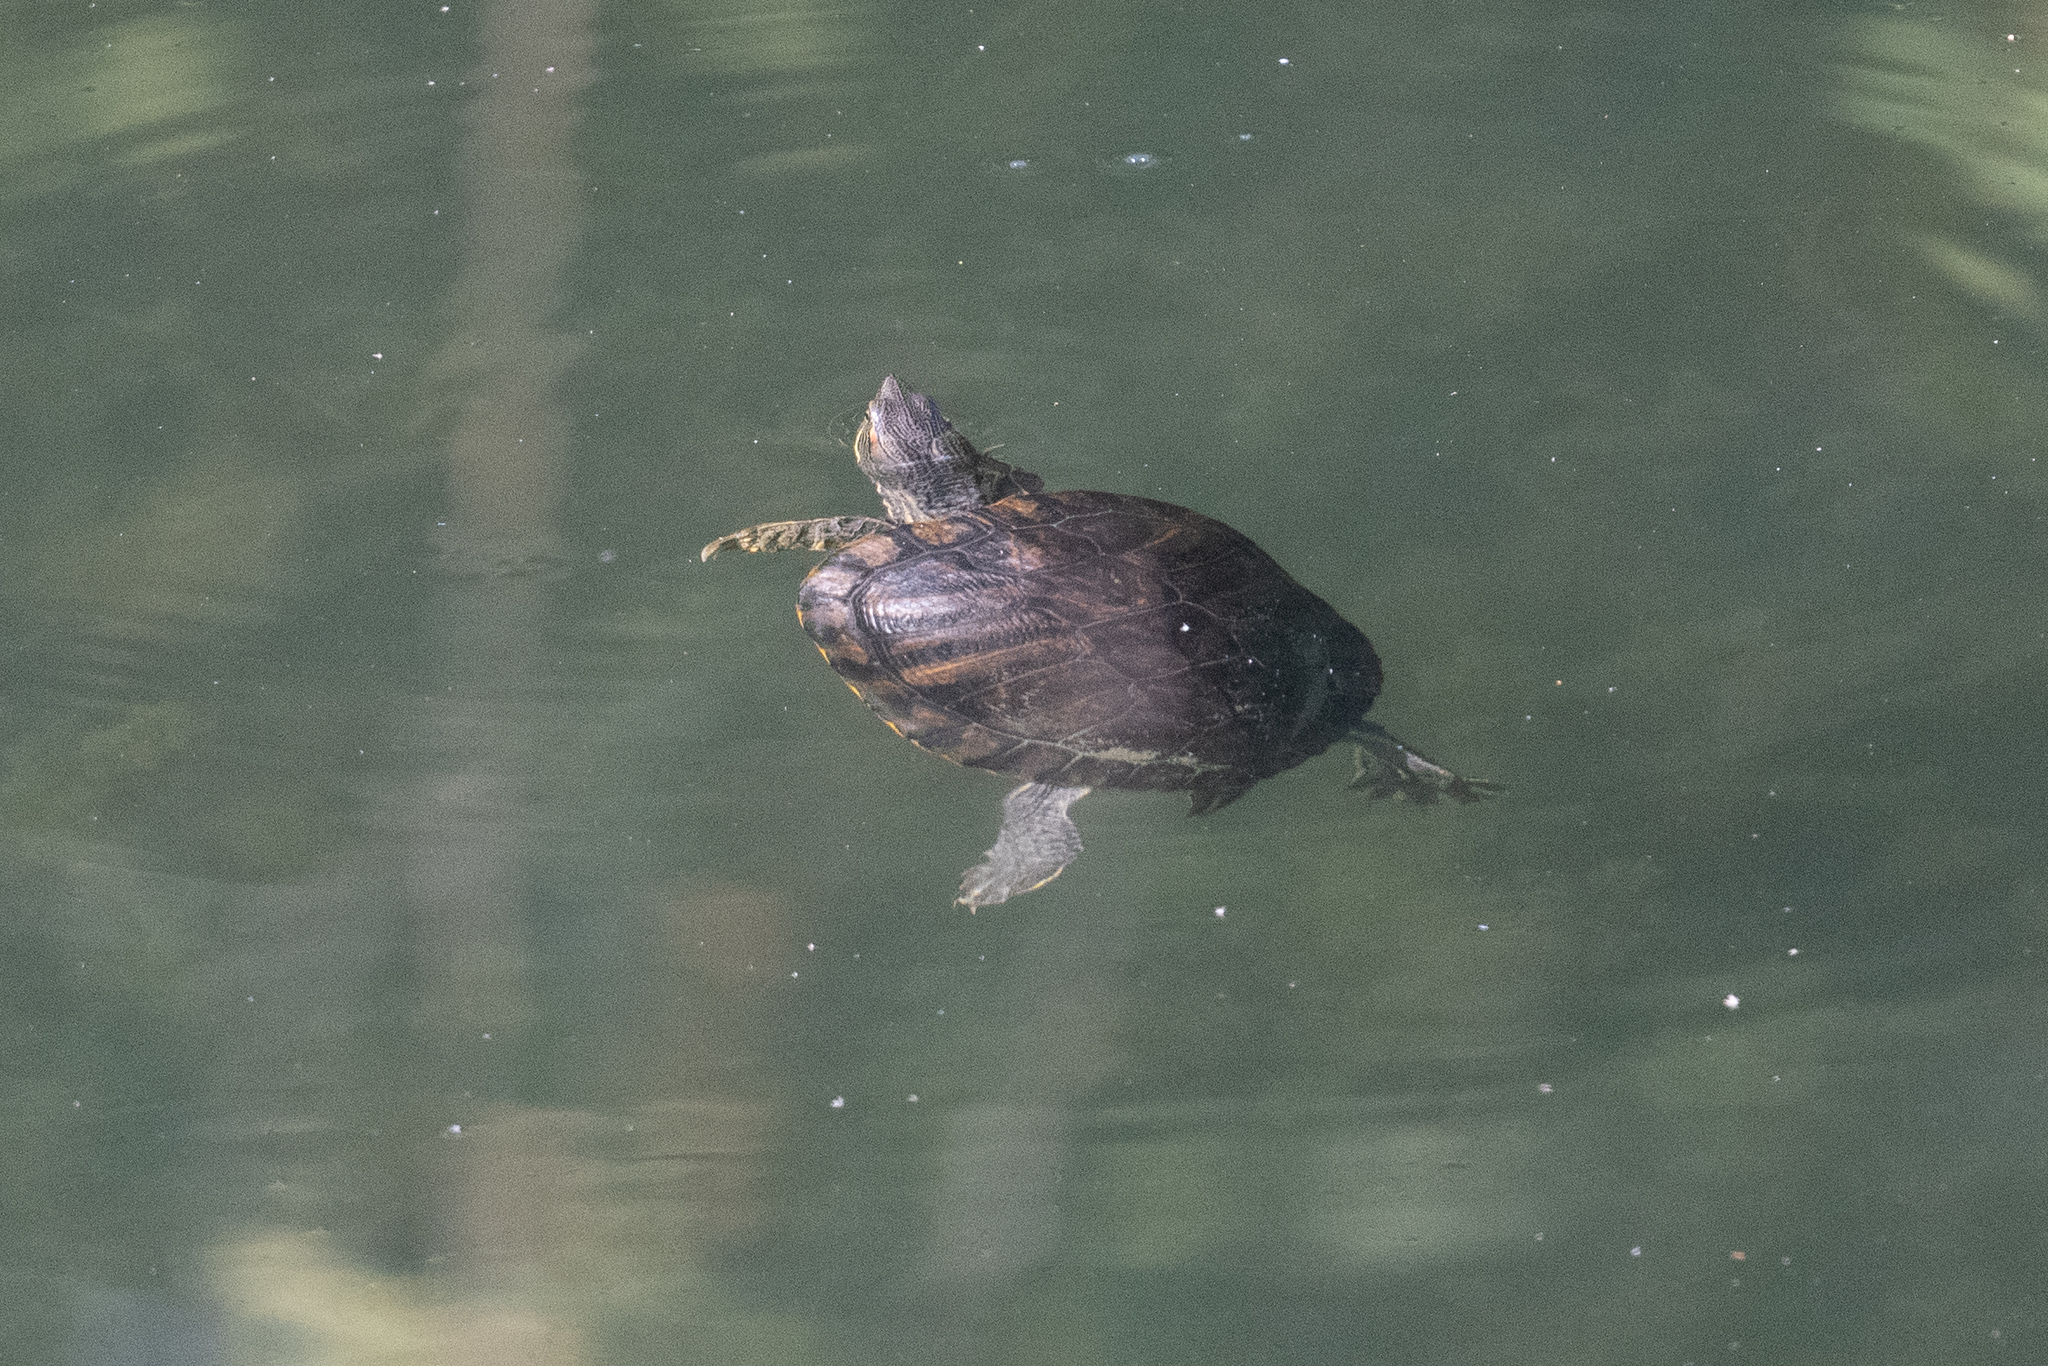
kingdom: Animalia
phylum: Chordata
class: Testudines
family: Emydidae
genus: Trachemys
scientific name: Trachemys scripta
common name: Slider
